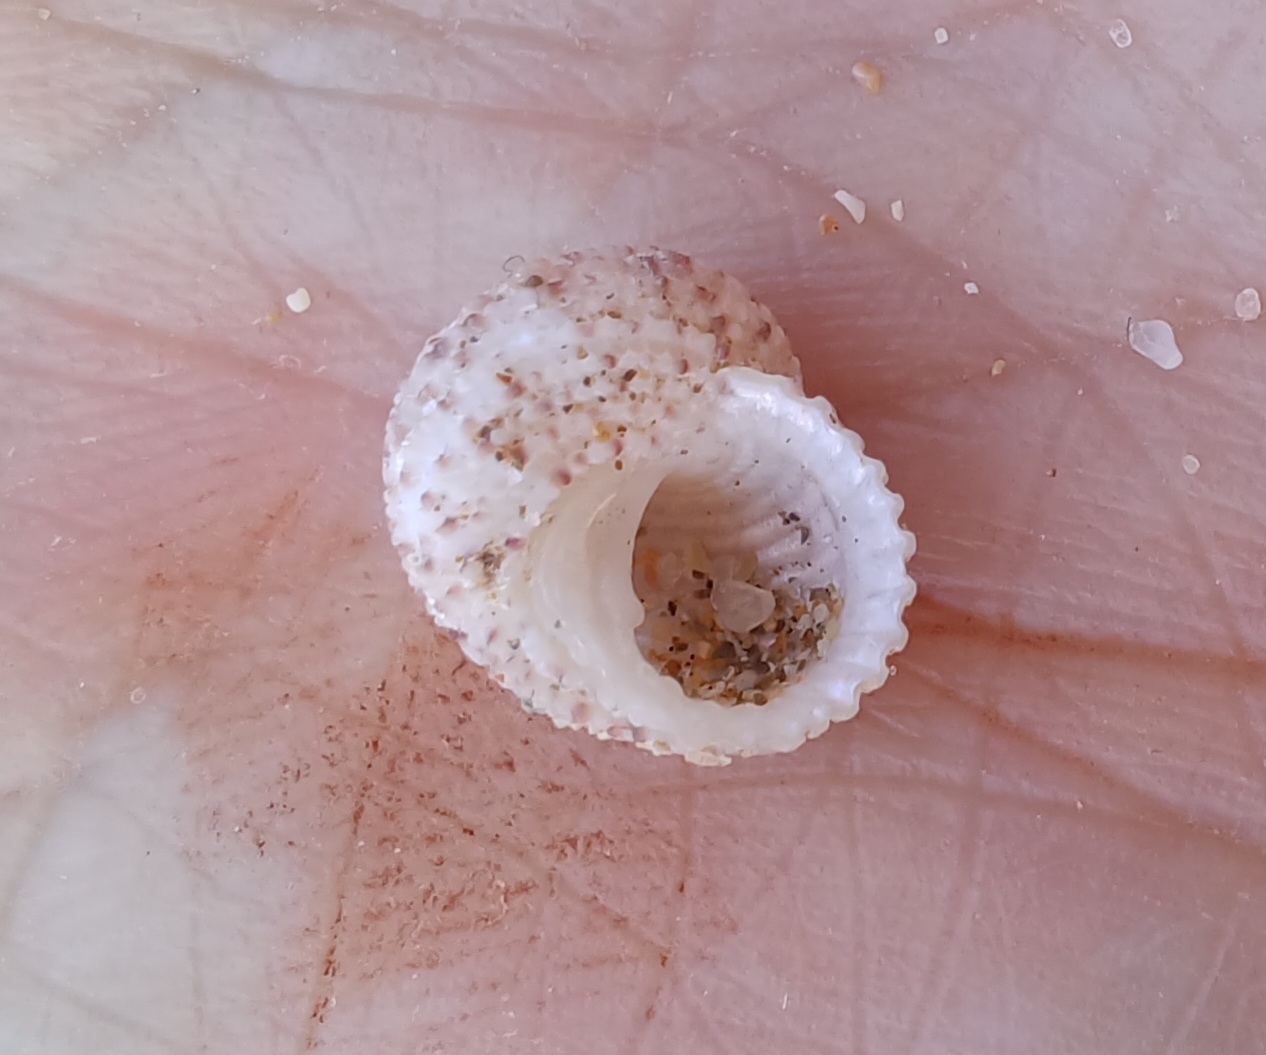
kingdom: Animalia
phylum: Mollusca
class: Gastropoda
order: Seguenziida
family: Chilodontaidae
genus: Herpetopoma
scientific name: Herpetopoma aspersum
